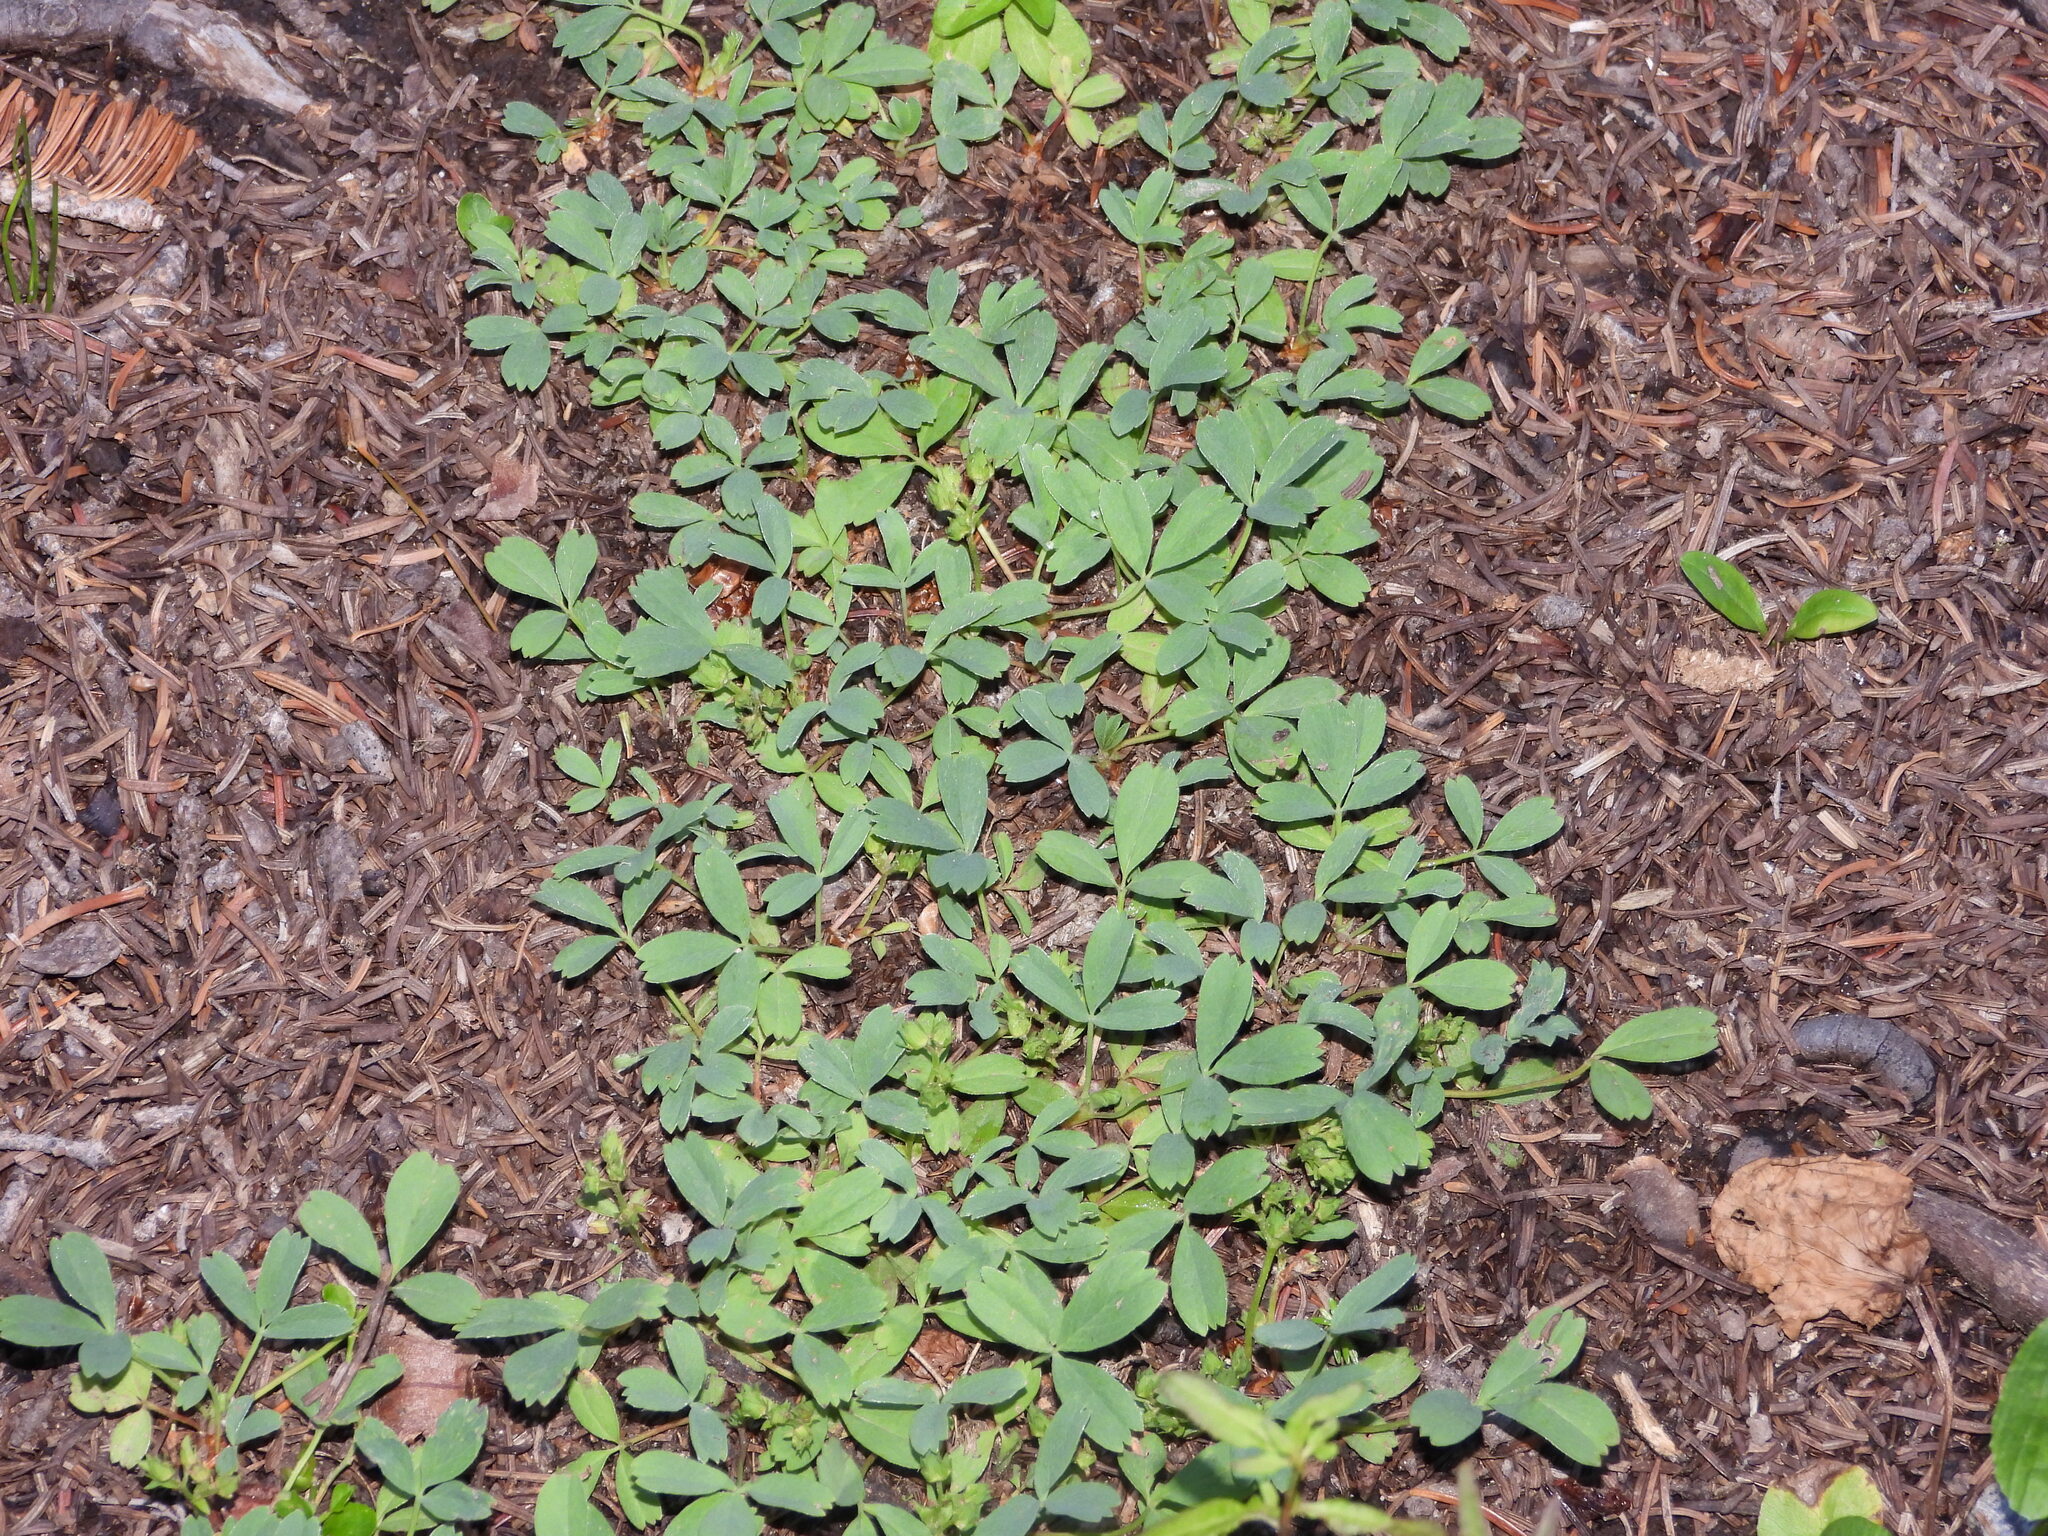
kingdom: Plantae
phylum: Tracheophyta
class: Magnoliopsida
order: Rosales
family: Rosaceae
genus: Sibbaldia
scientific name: Sibbaldia procumbens
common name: Creeping sibbaldia
